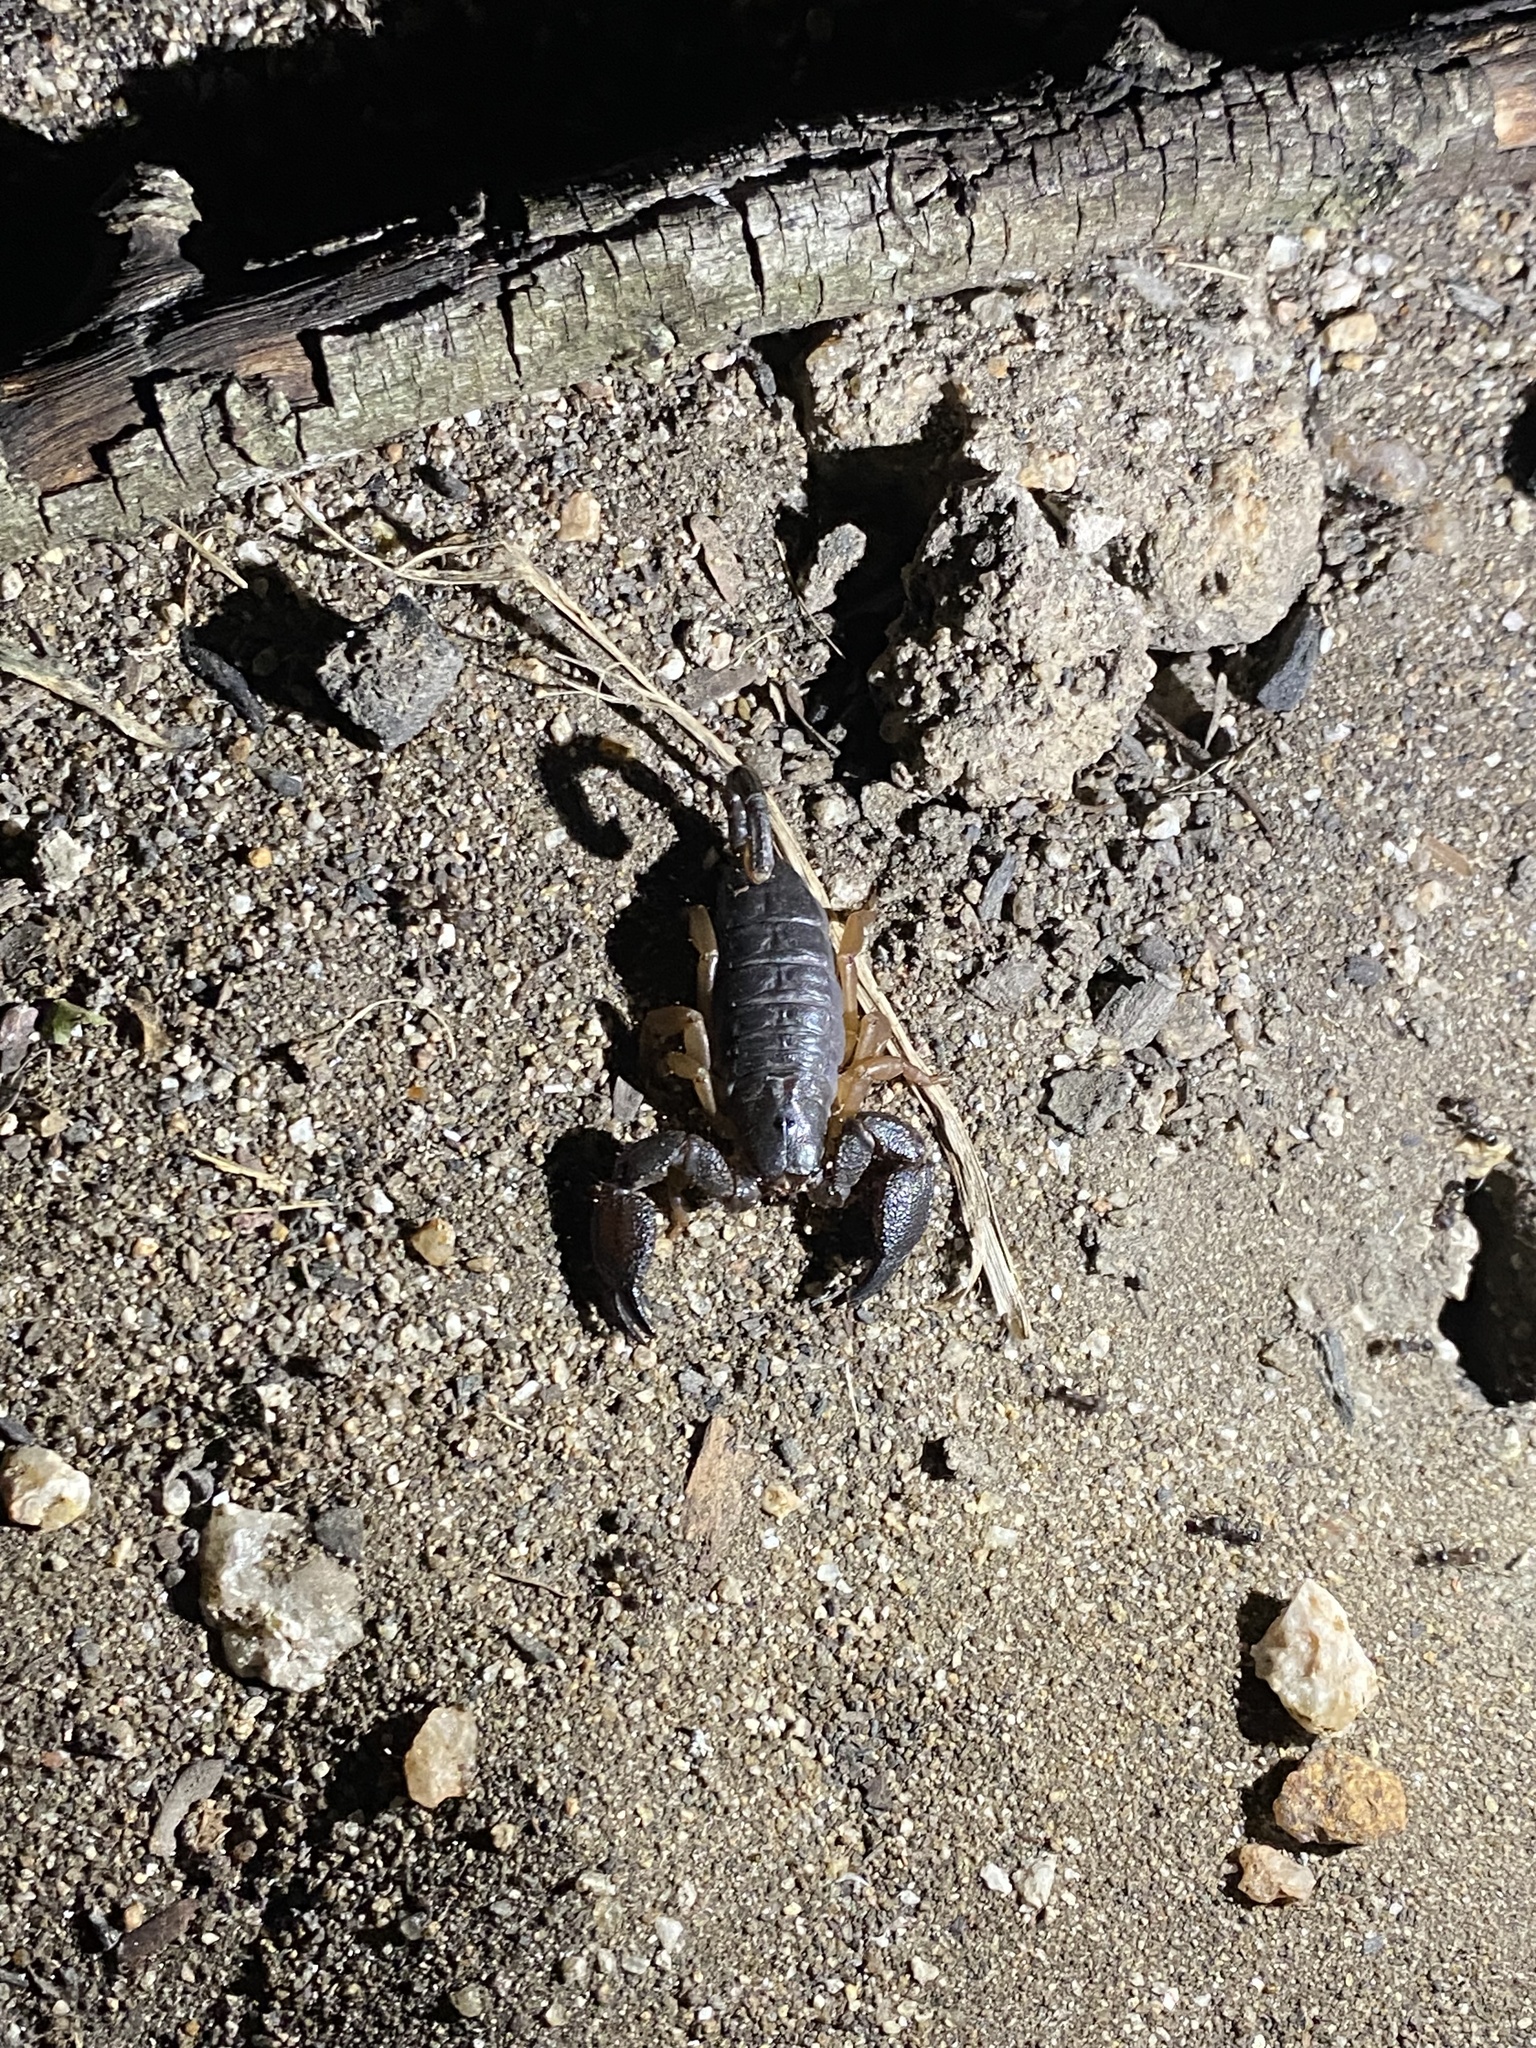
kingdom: Animalia
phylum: Arthropoda
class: Arachnida
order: Scorpiones
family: Hormuridae
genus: Opisthacanthus
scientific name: Opisthacanthus asper
